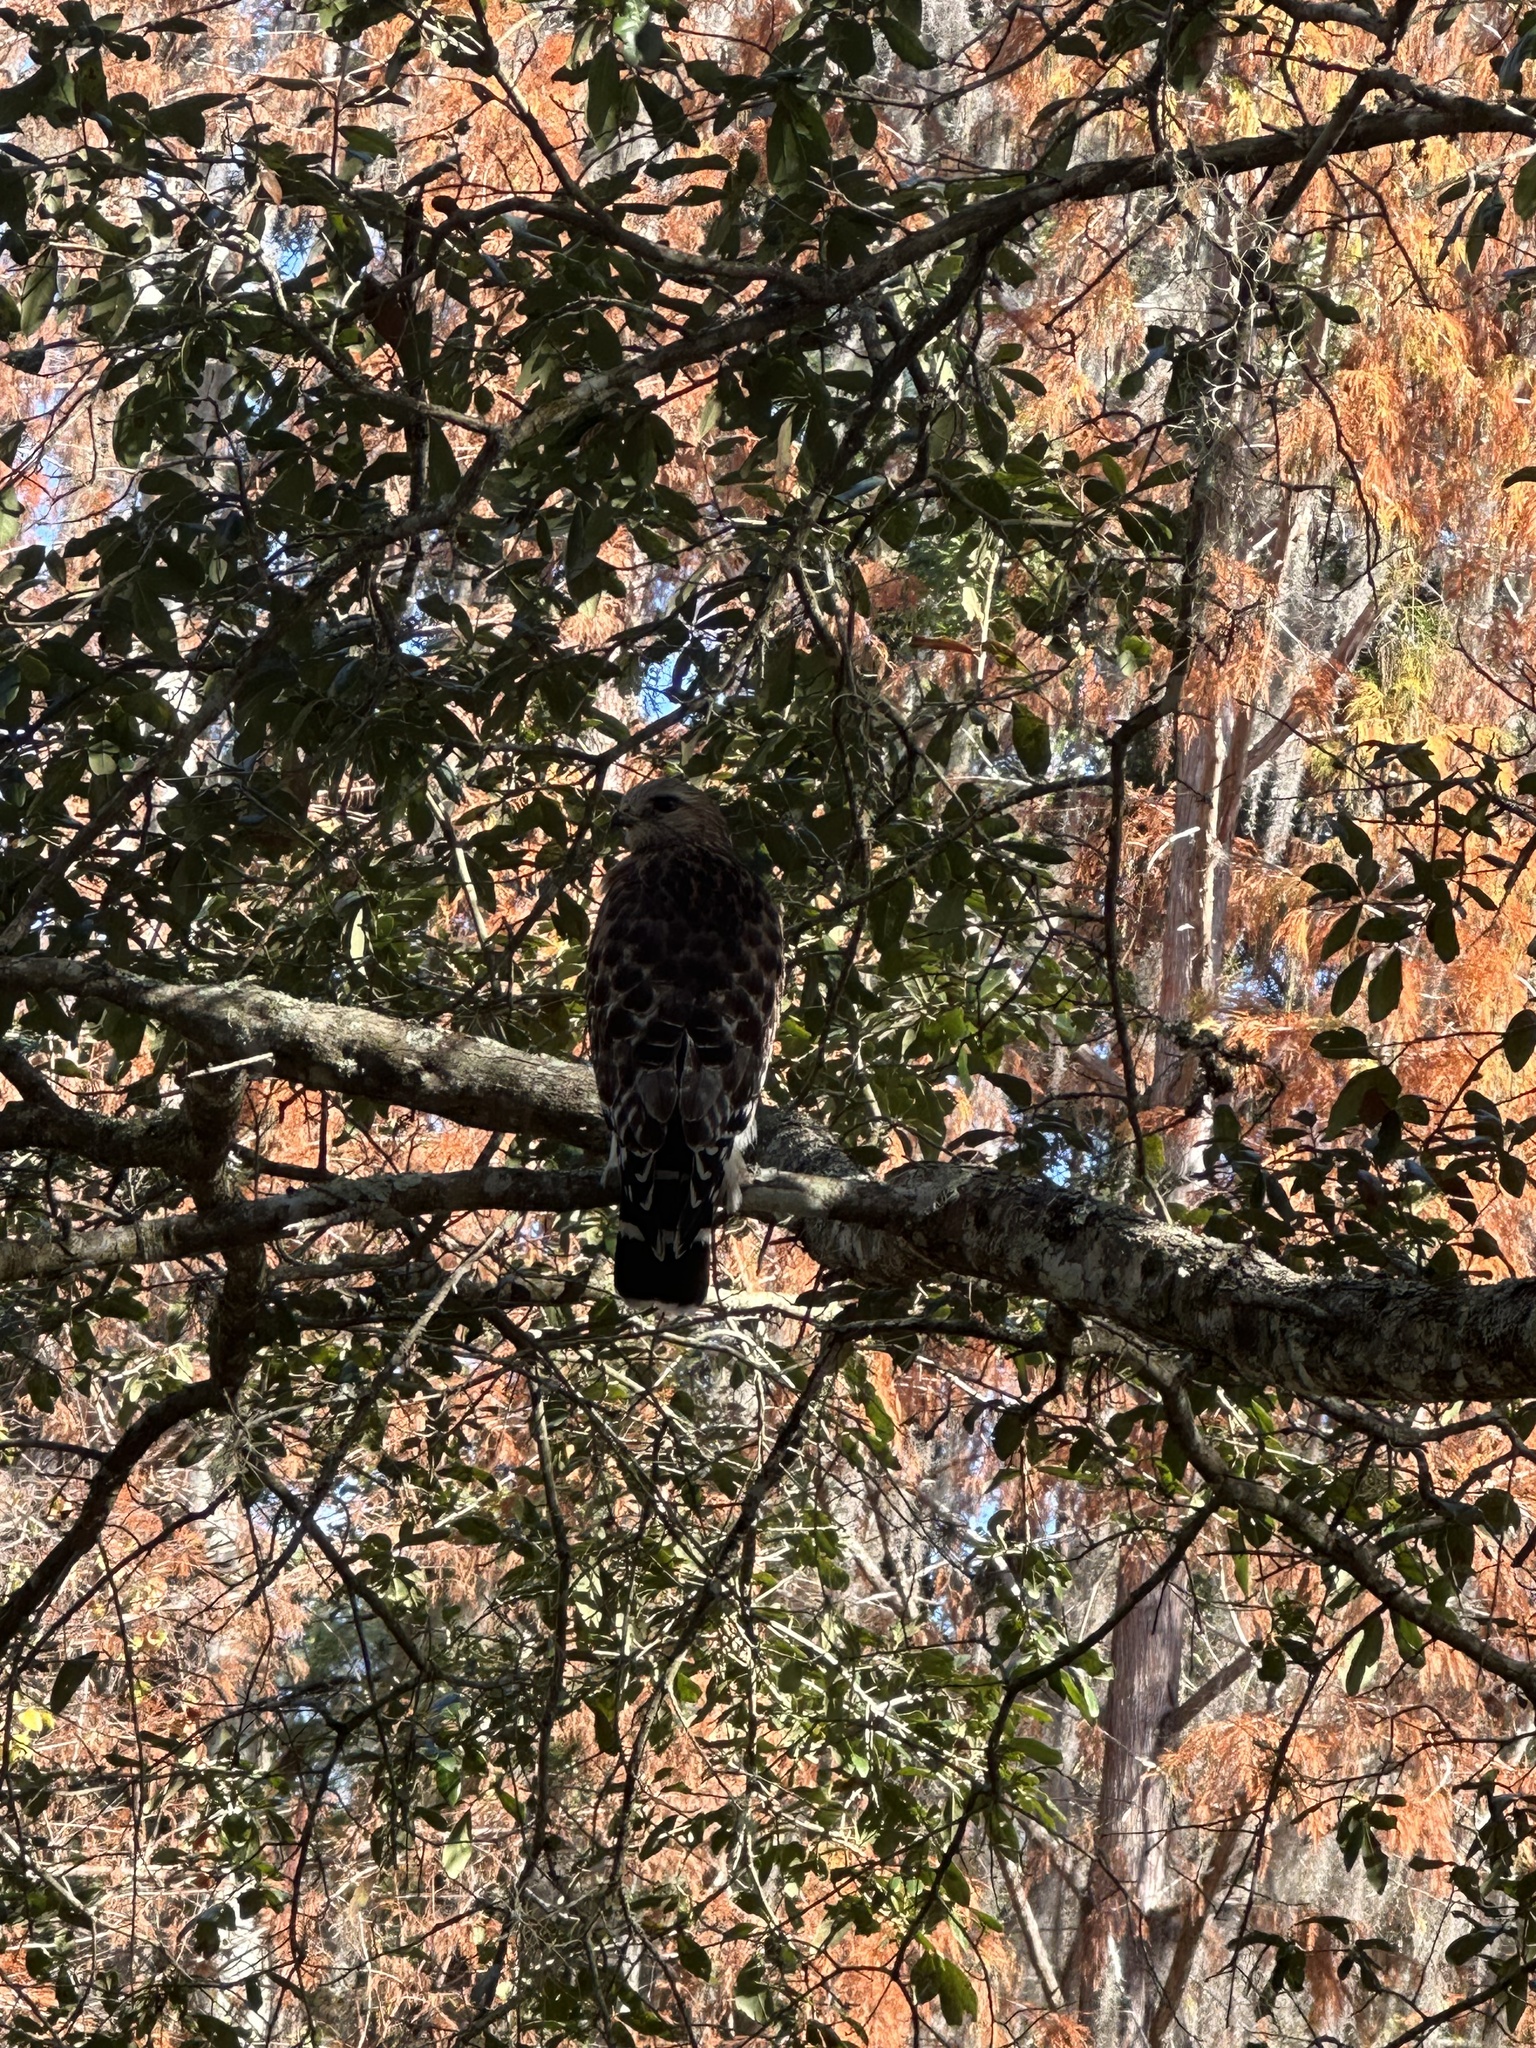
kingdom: Animalia
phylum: Chordata
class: Aves
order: Accipitriformes
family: Accipitridae
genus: Buteo
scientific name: Buteo lineatus
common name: Red-shouldered hawk
